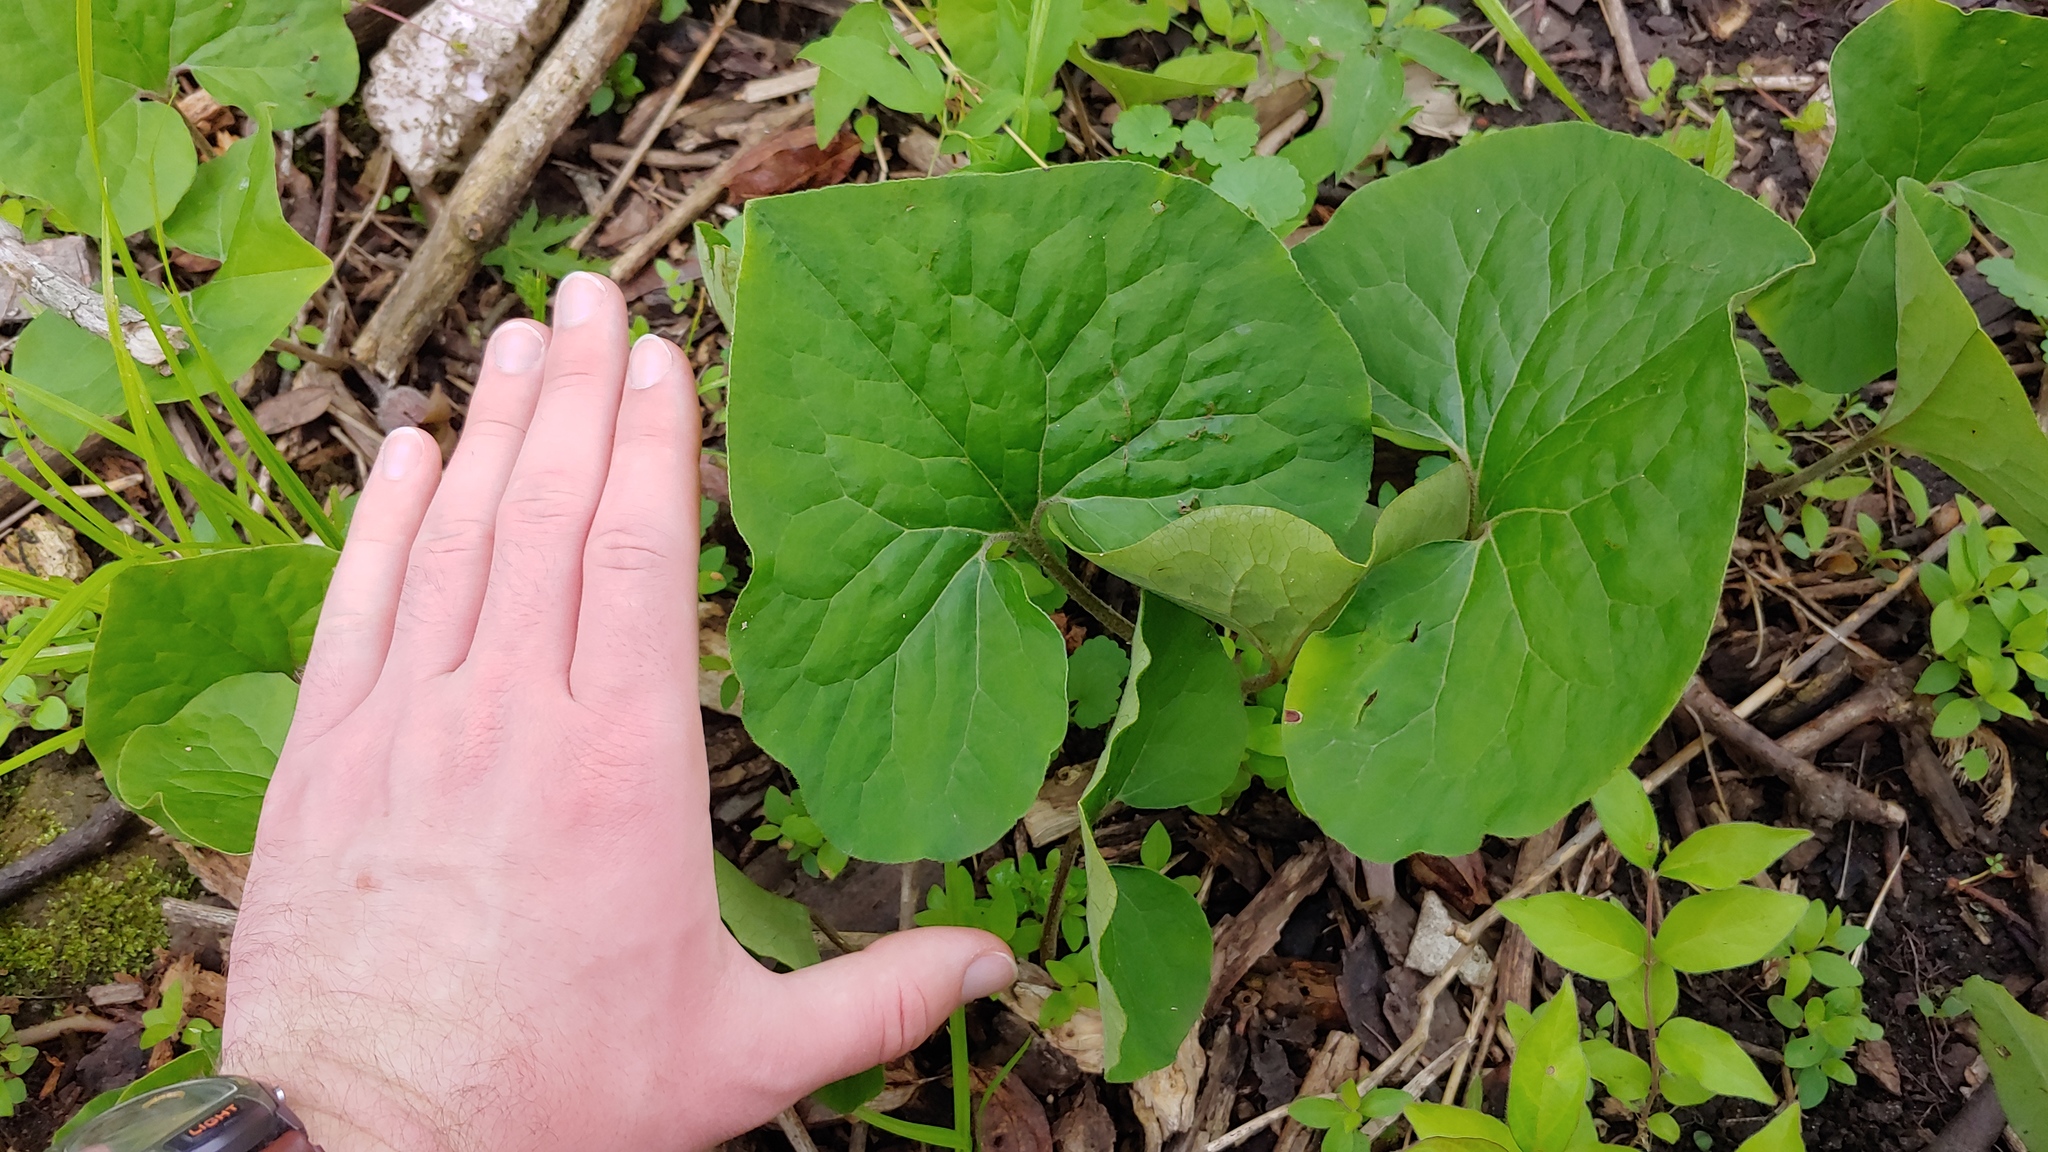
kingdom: Plantae
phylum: Tracheophyta
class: Magnoliopsida
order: Piperales
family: Aristolochiaceae
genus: Asarum
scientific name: Asarum canadense
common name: Wild ginger
